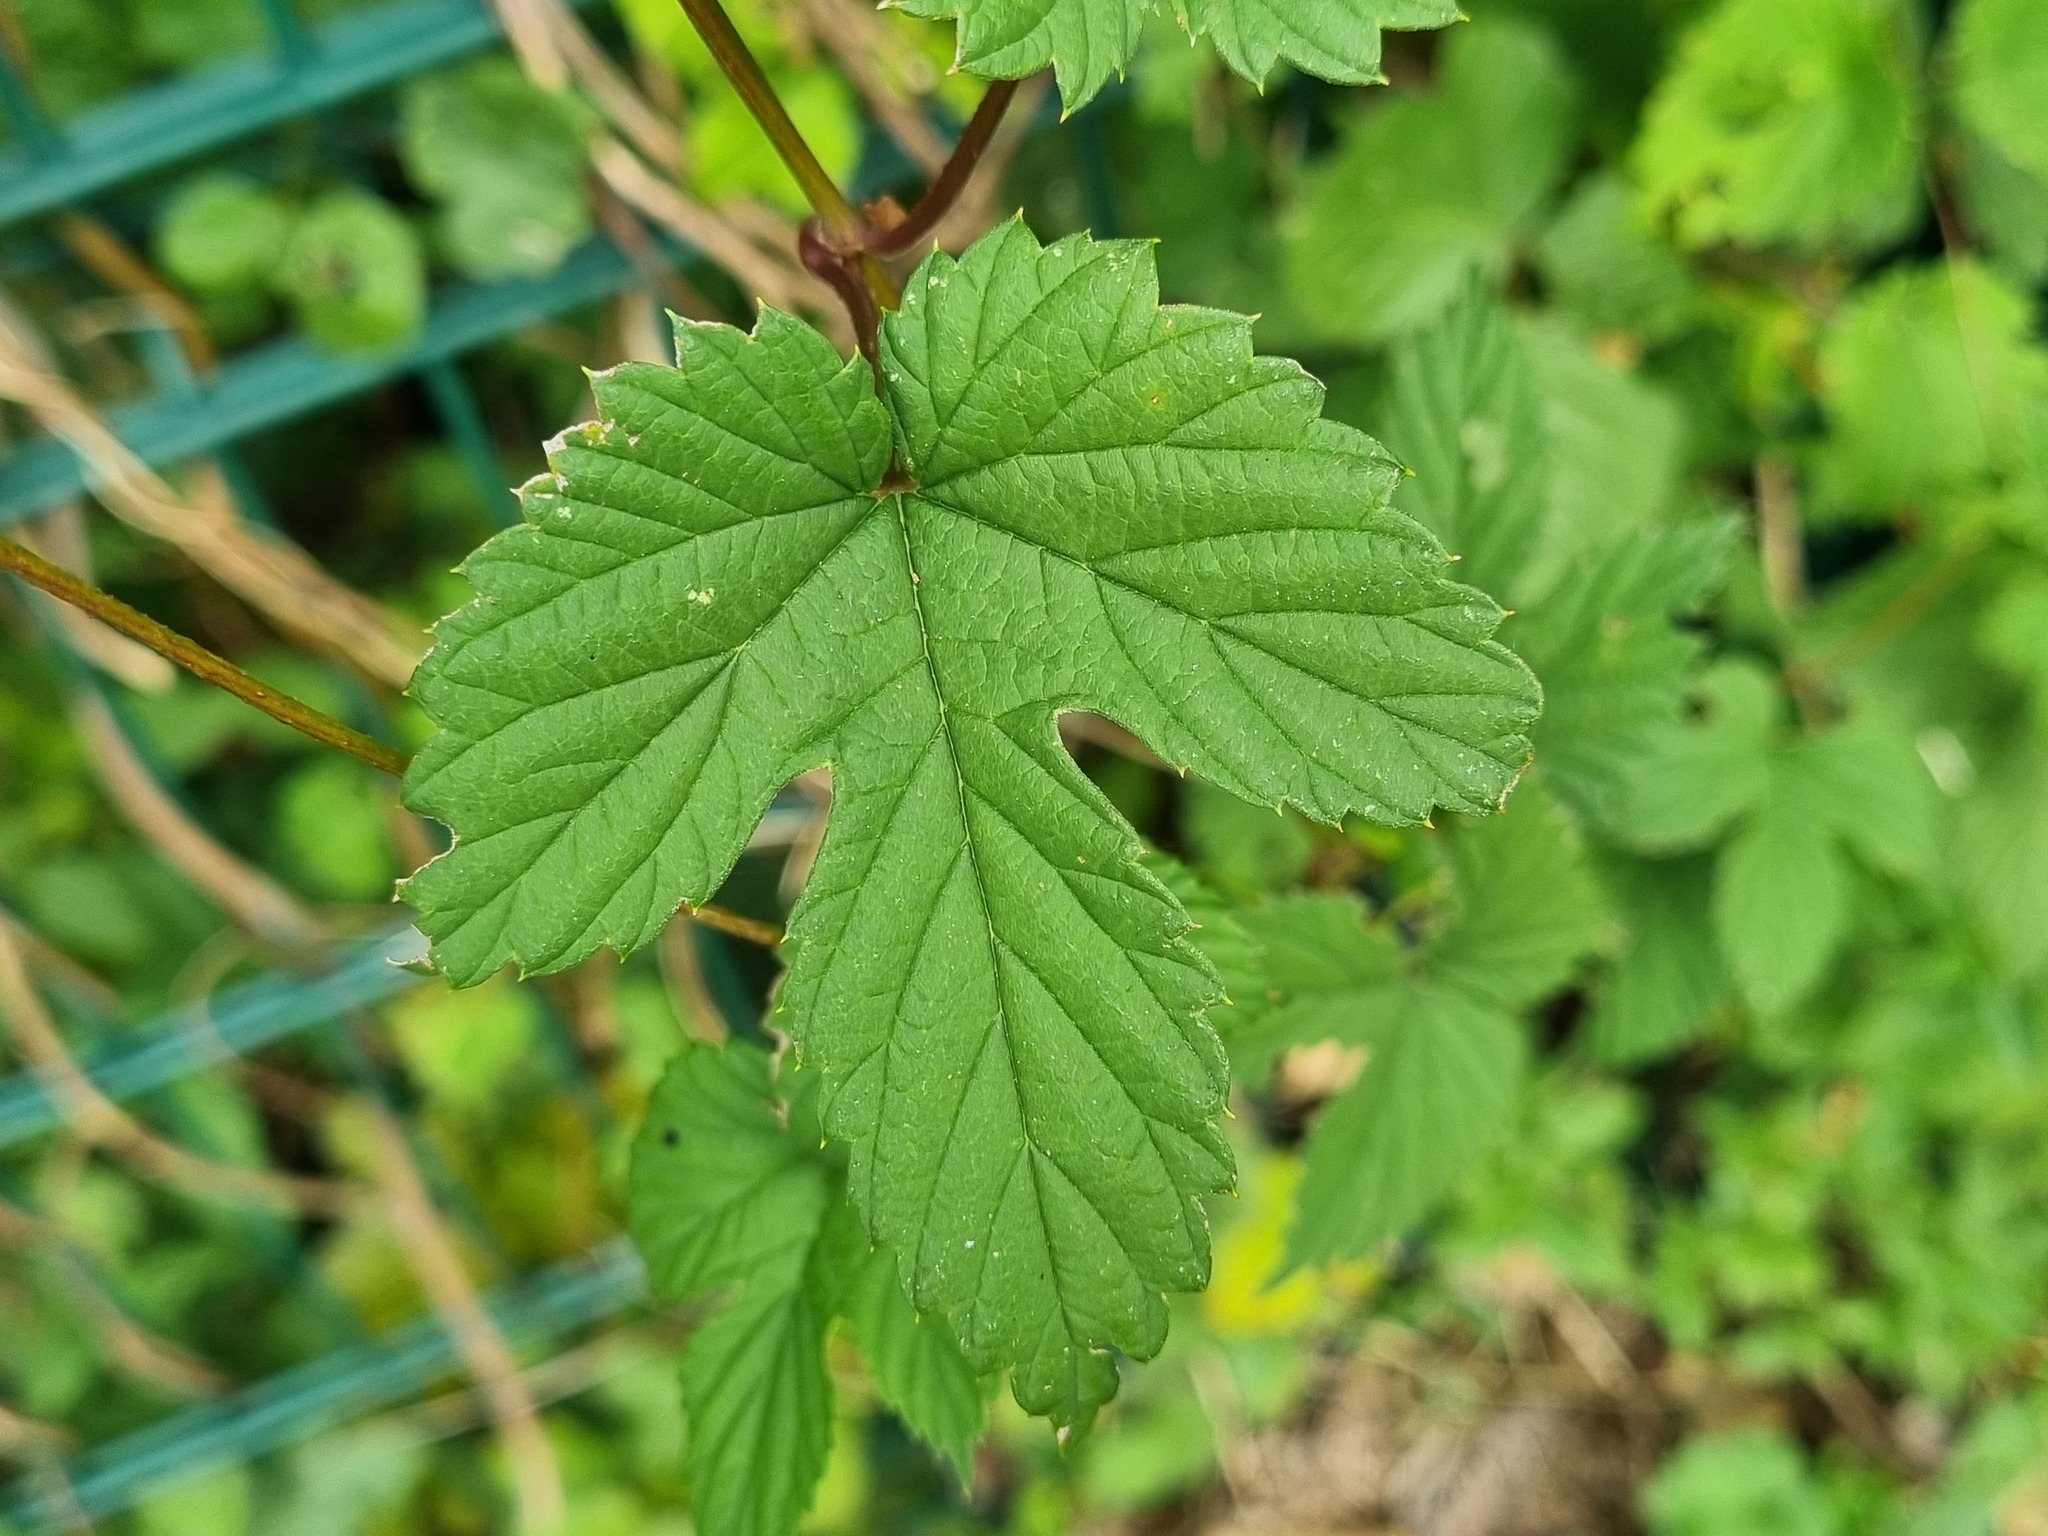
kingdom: Plantae
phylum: Tracheophyta
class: Magnoliopsida
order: Rosales
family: Cannabaceae
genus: Humulus
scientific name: Humulus lupulus
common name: Hop
